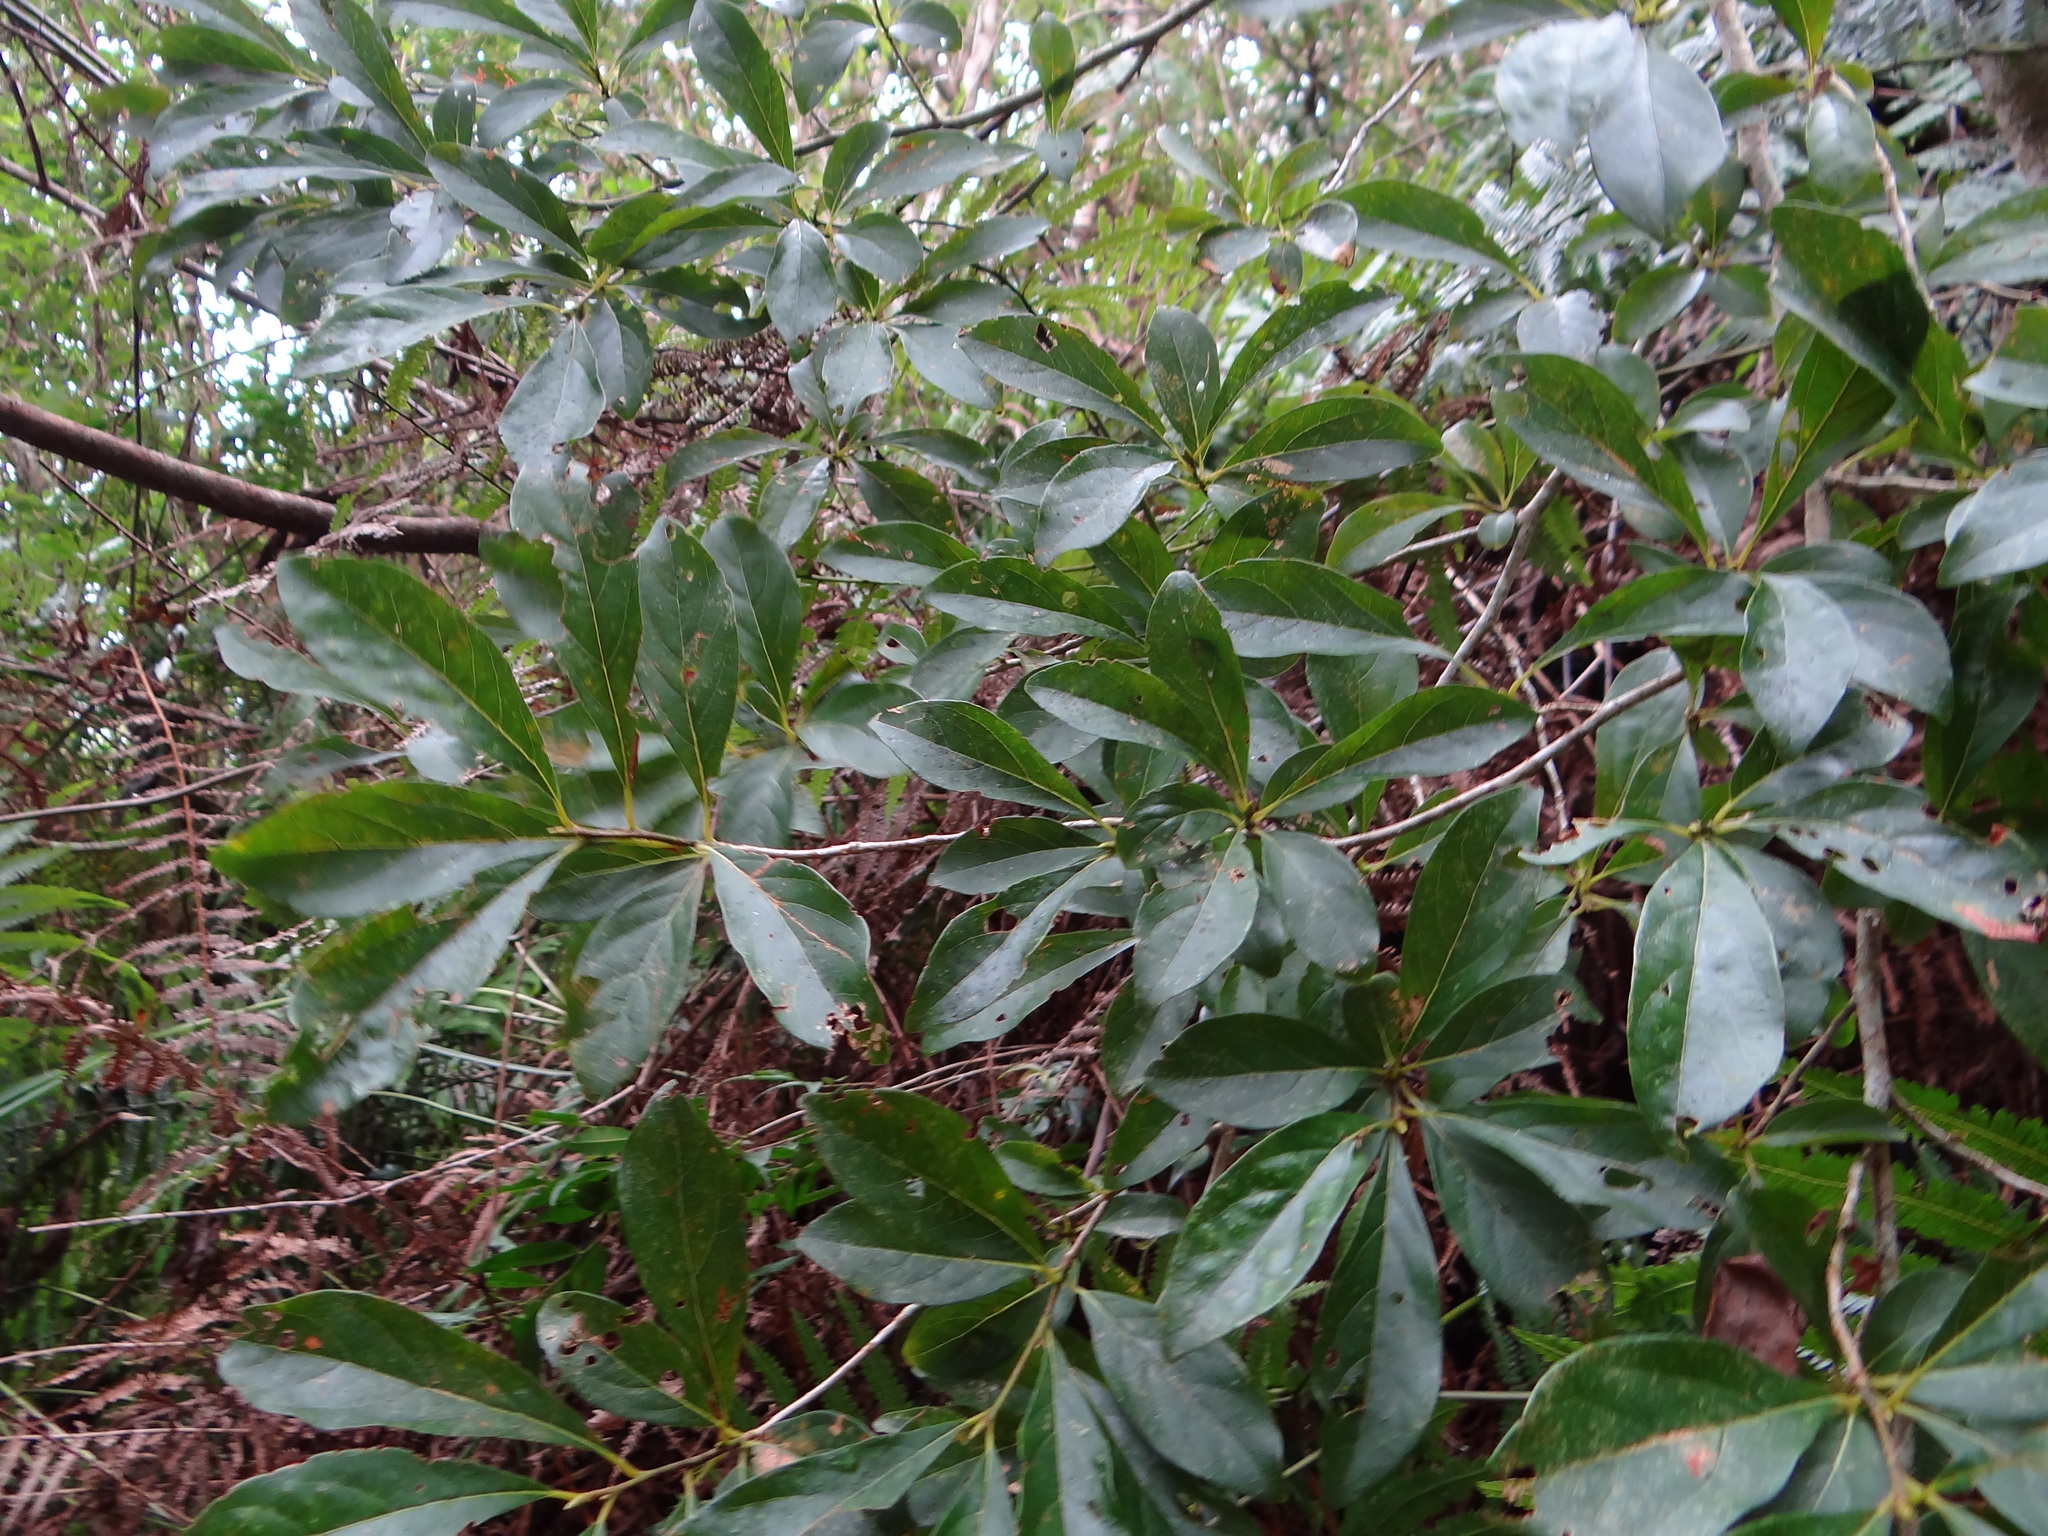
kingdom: Plantae
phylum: Tracheophyta
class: Magnoliopsida
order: Laurales
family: Lauraceae
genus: Lindera
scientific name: Lindera erythrocarpa
